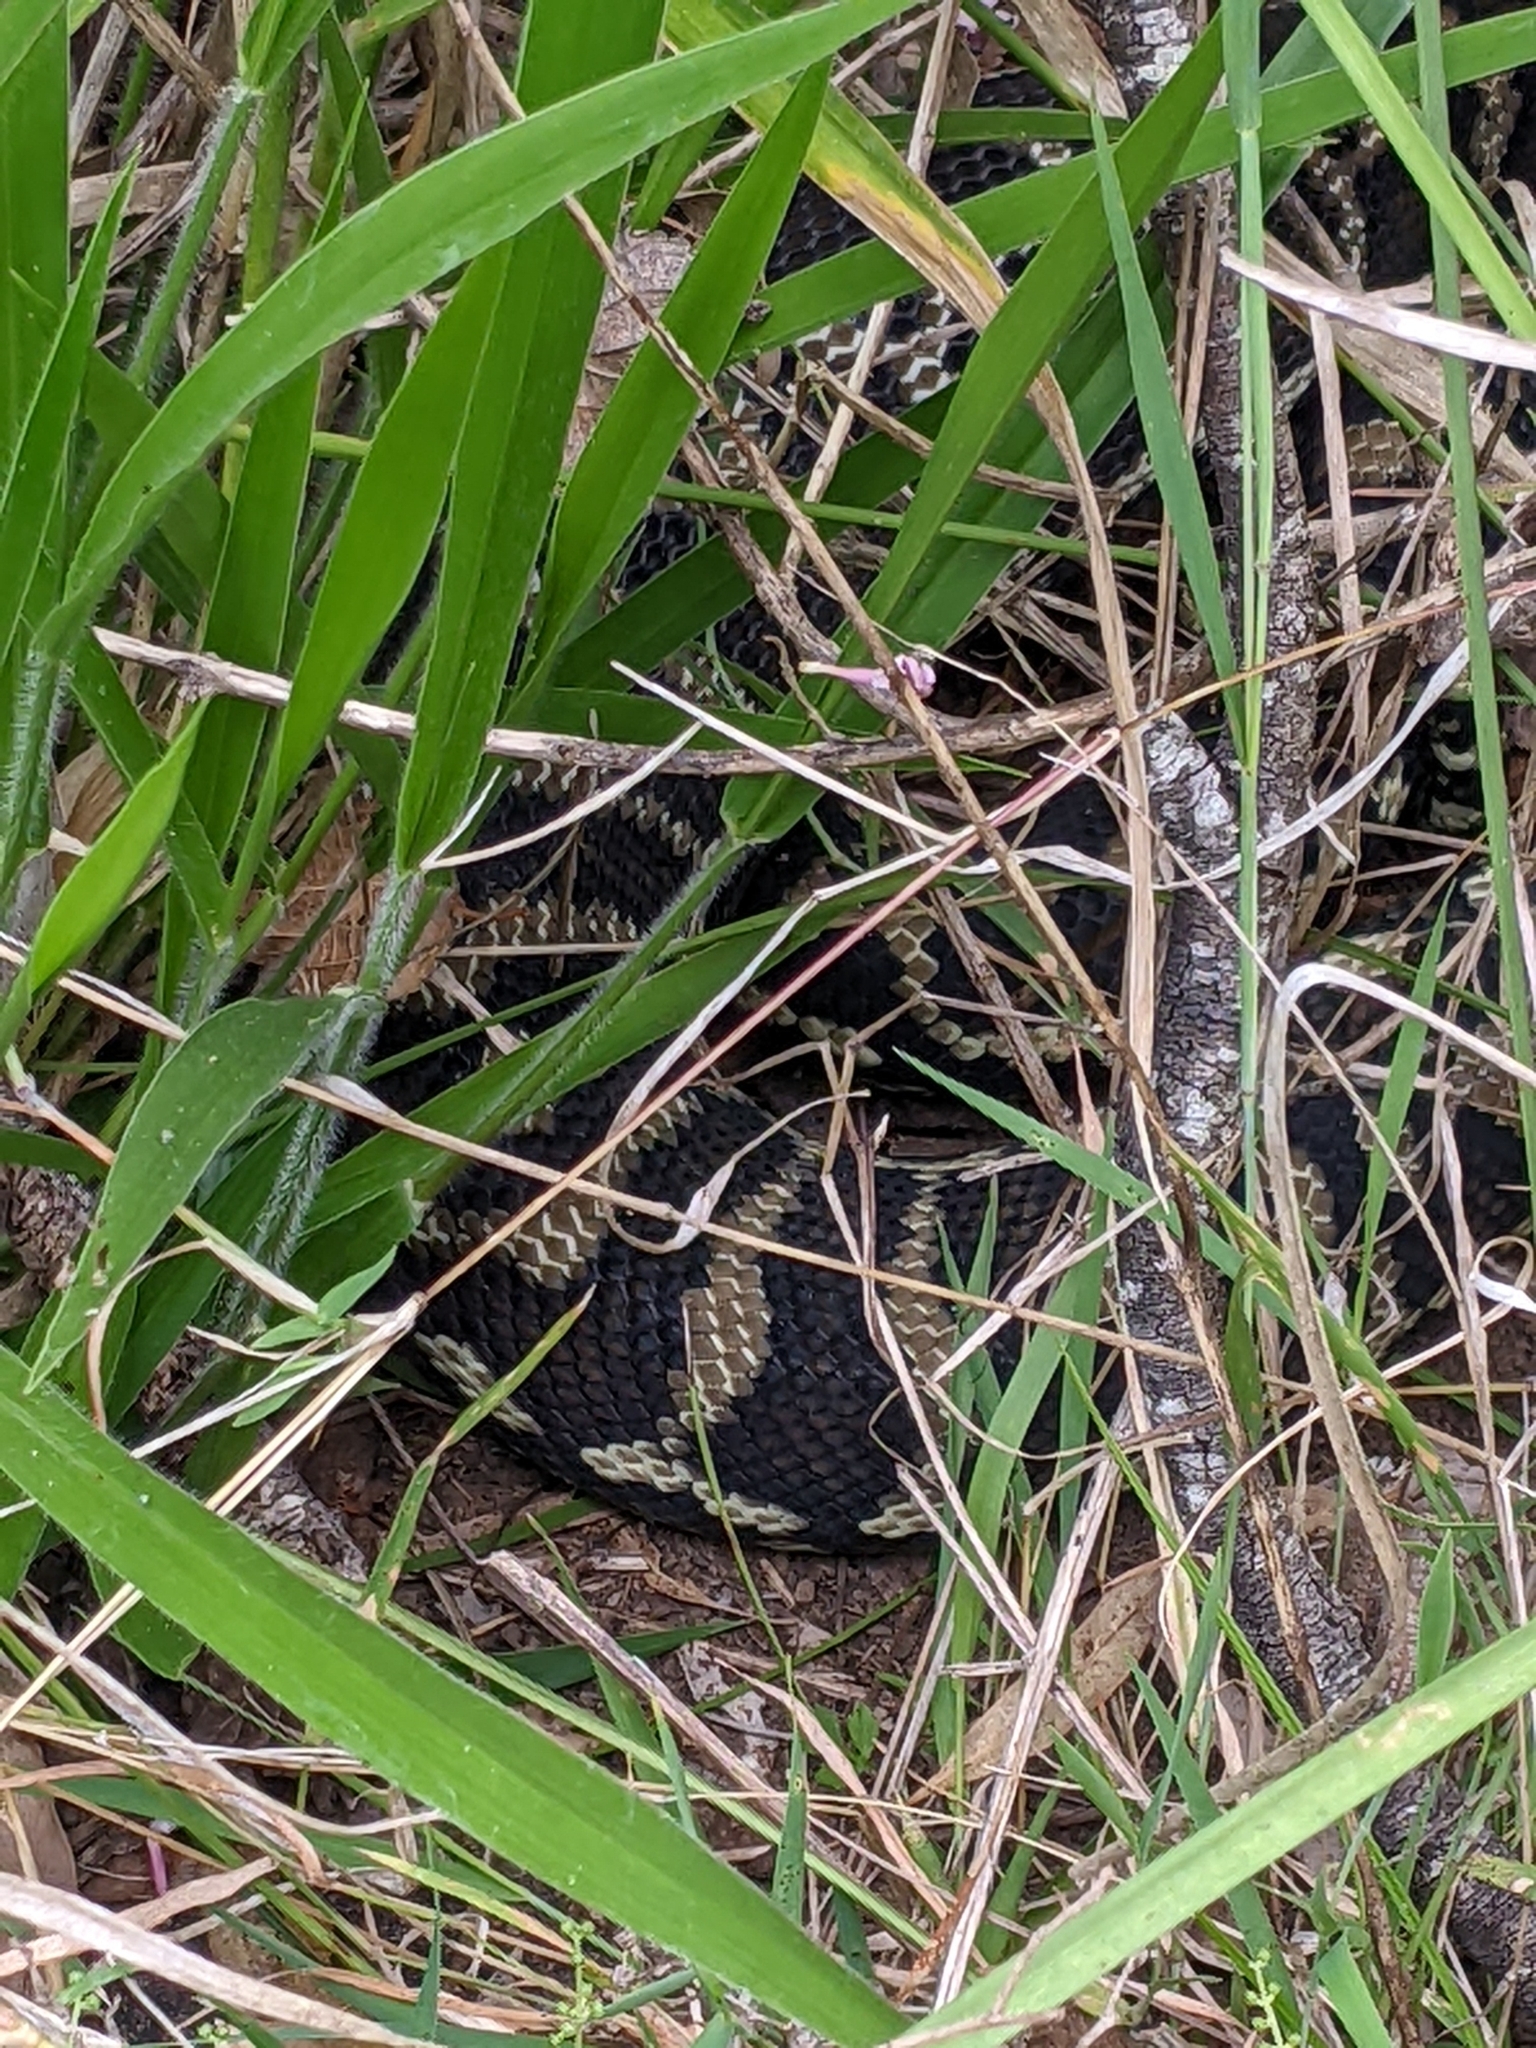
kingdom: Animalia
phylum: Chordata
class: Squamata
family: Pythonidae
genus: Morelia
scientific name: Morelia spilota
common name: Carpet python
